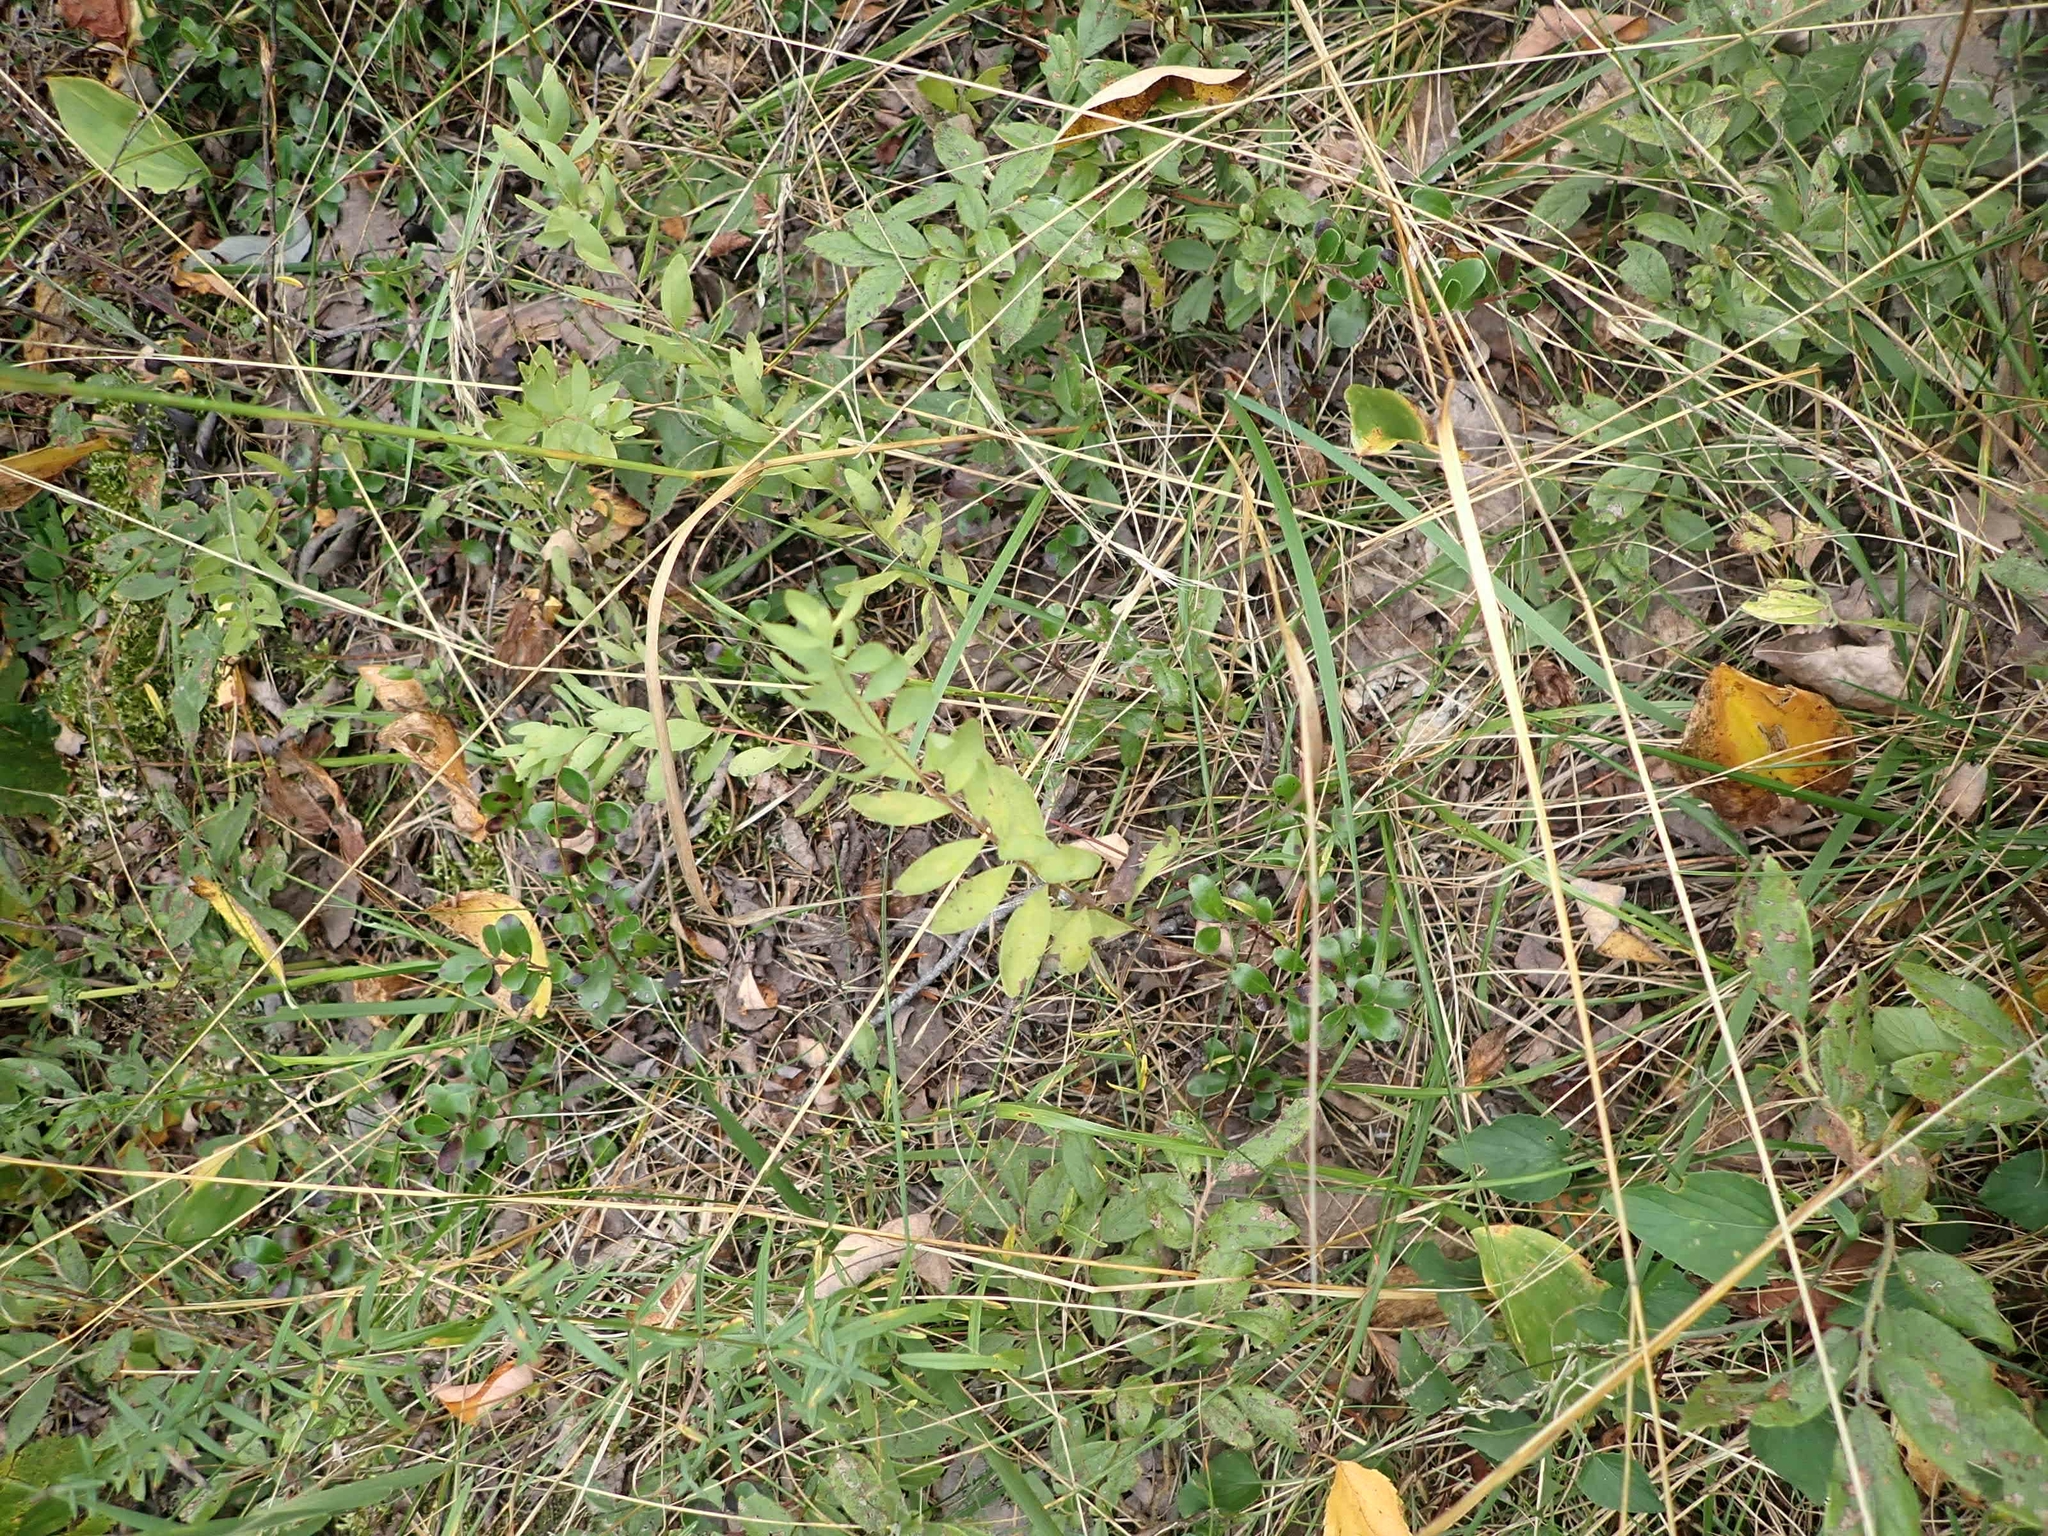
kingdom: Plantae
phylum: Tracheophyta
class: Magnoliopsida
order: Santalales
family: Comandraceae
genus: Comandra
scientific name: Comandra umbellata
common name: Bastard toadflax
